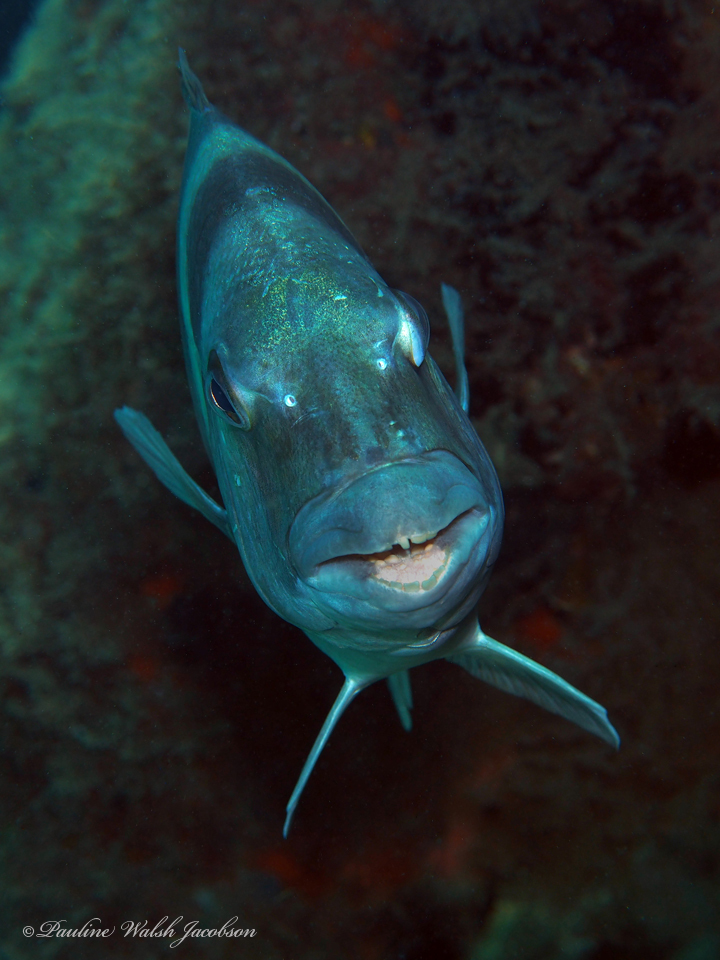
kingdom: Animalia
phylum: Chordata
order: Perciformes
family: Sparidae
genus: Archosargus
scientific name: Archosargus probatocephalus
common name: Sheepshead
